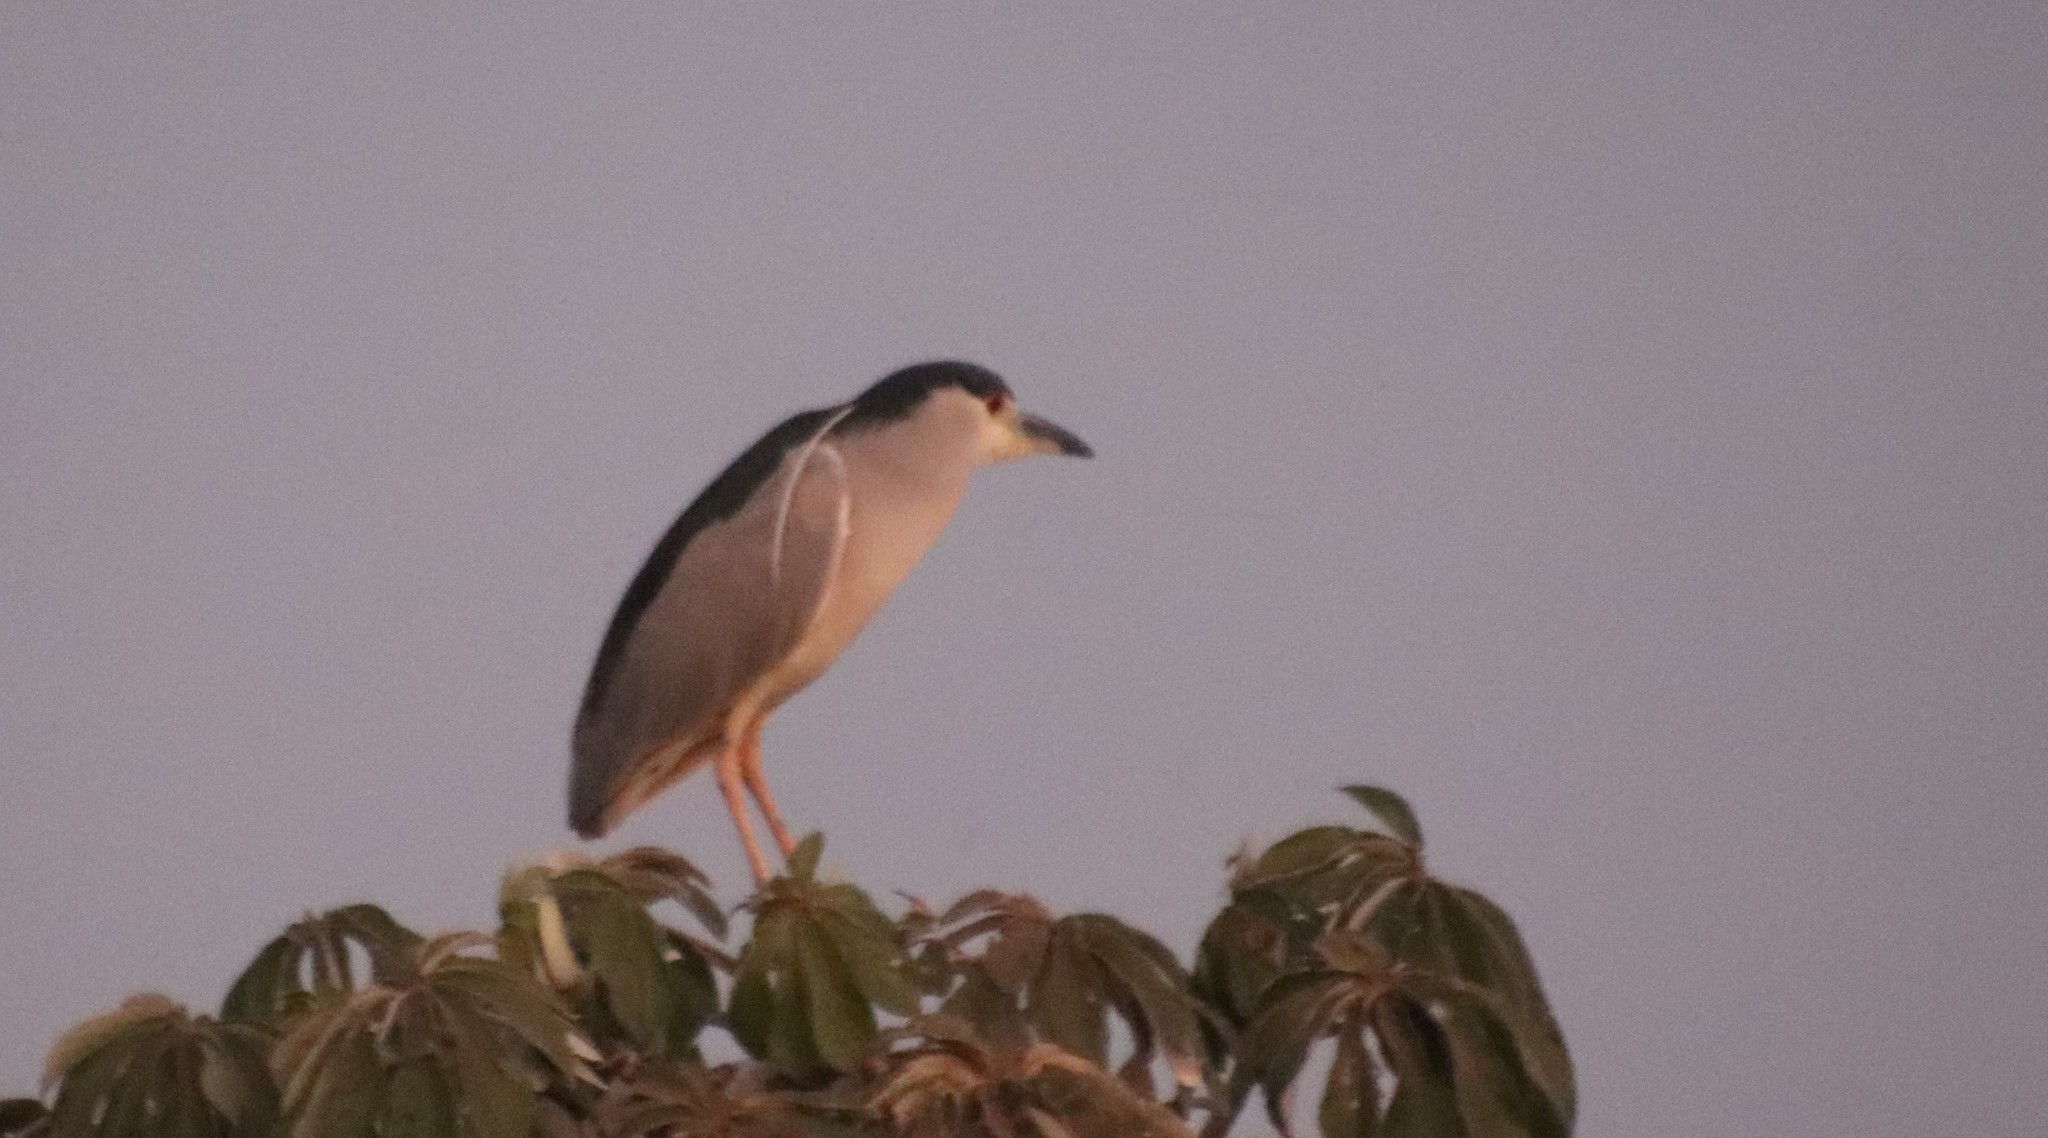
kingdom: Animalia
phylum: Chordata
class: Aves
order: Pelecaniformes
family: Ardeidae
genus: Nycticorax
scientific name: Nycticorax nycticorax
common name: Black-crowned night heron
